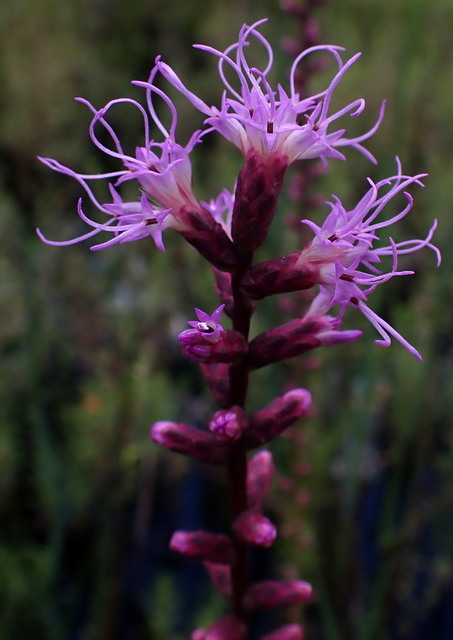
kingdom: Plantae
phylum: Tracheophyta
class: Magnoliopsida
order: Asterales
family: Asteraceae
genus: Liatris
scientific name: Liatris spicata
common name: Florist gayfeather
